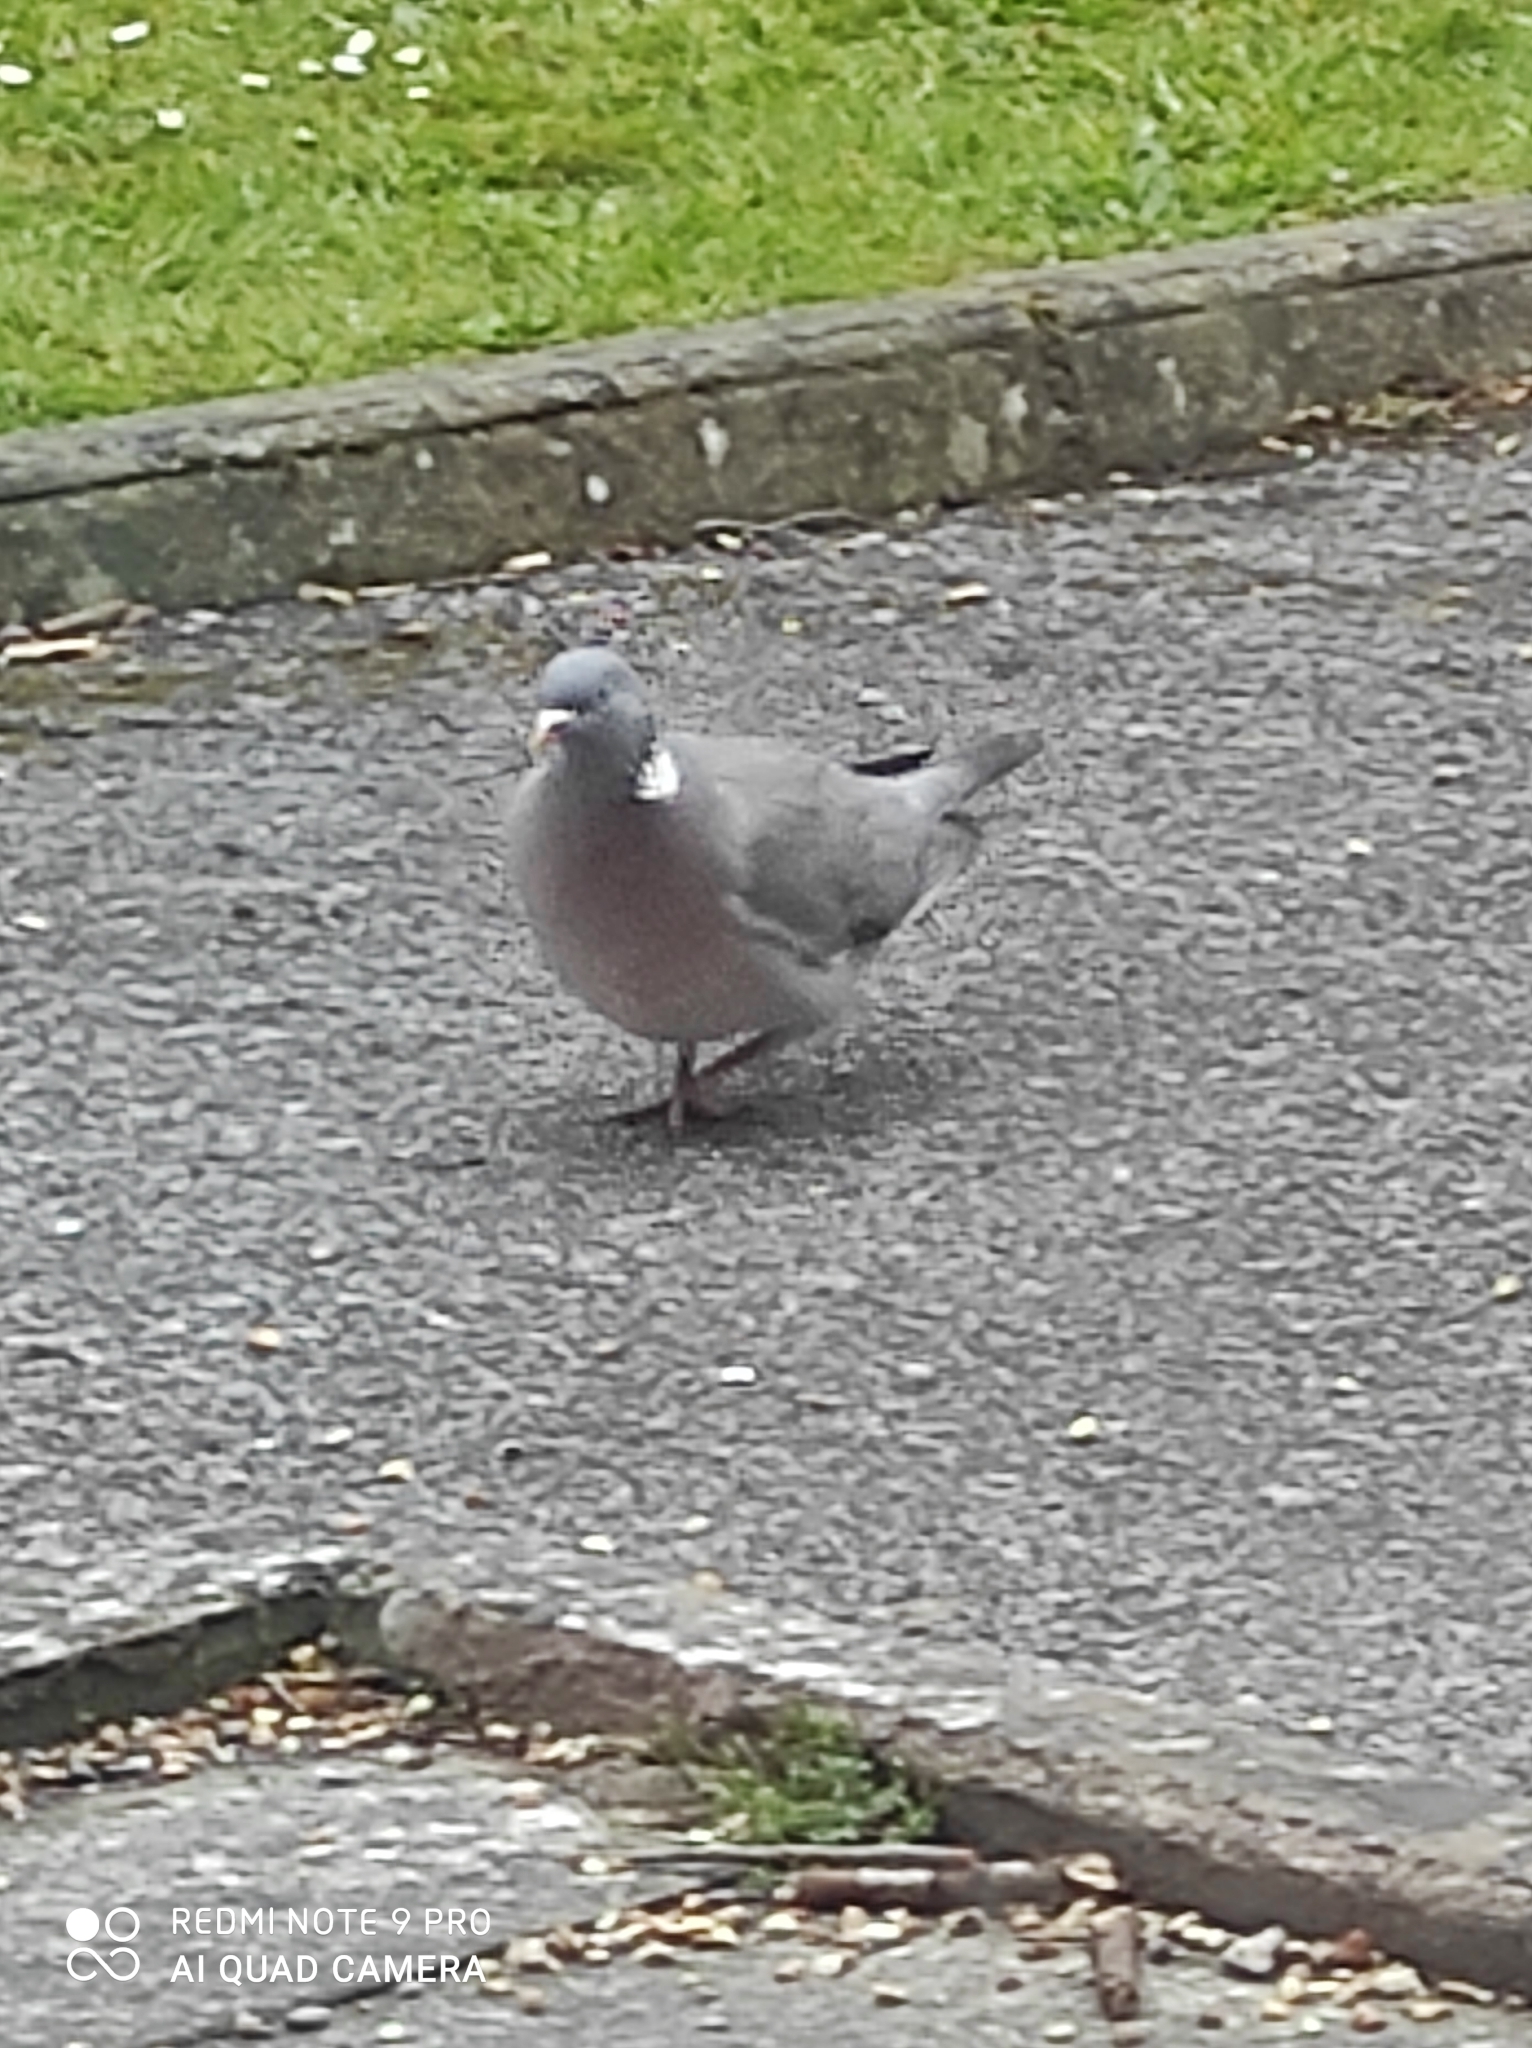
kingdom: Animalia
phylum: Chordata
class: Aves
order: Columbiformes
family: Columbidae
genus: Columba
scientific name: Columba palumbus
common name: Common wood pigeon
